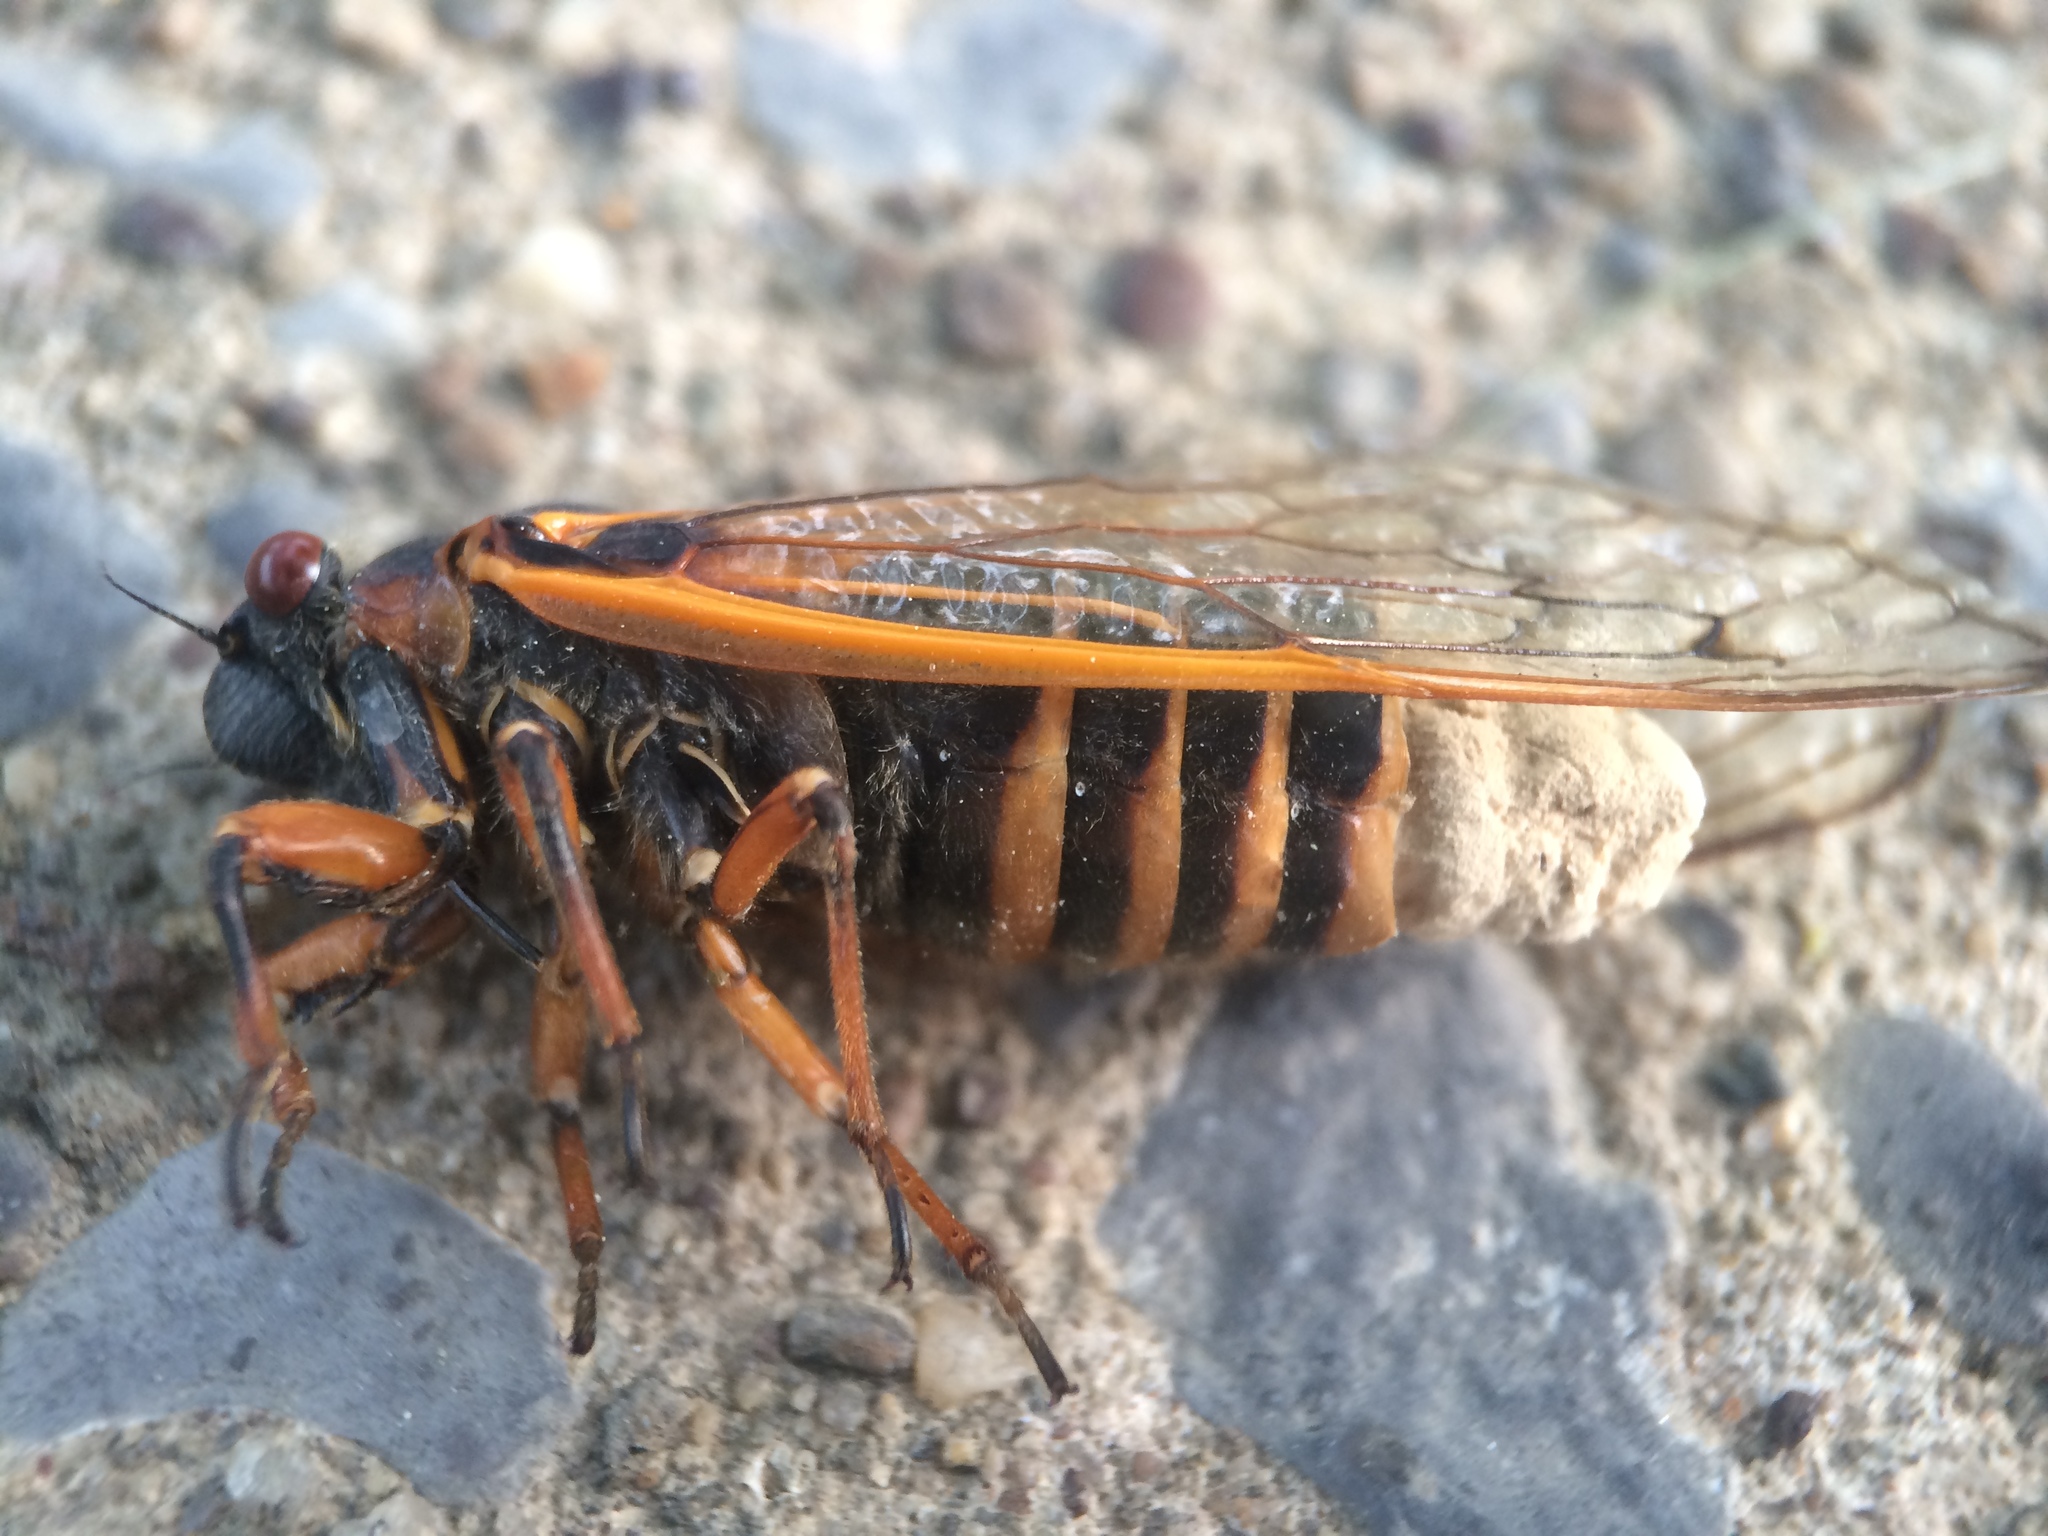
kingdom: Fungi
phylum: Entomophthoromycota
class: Entomophthoromycetes
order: Entomophthorales
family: Entomophthoraceae
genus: Massospora
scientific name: Massospora cicadina
